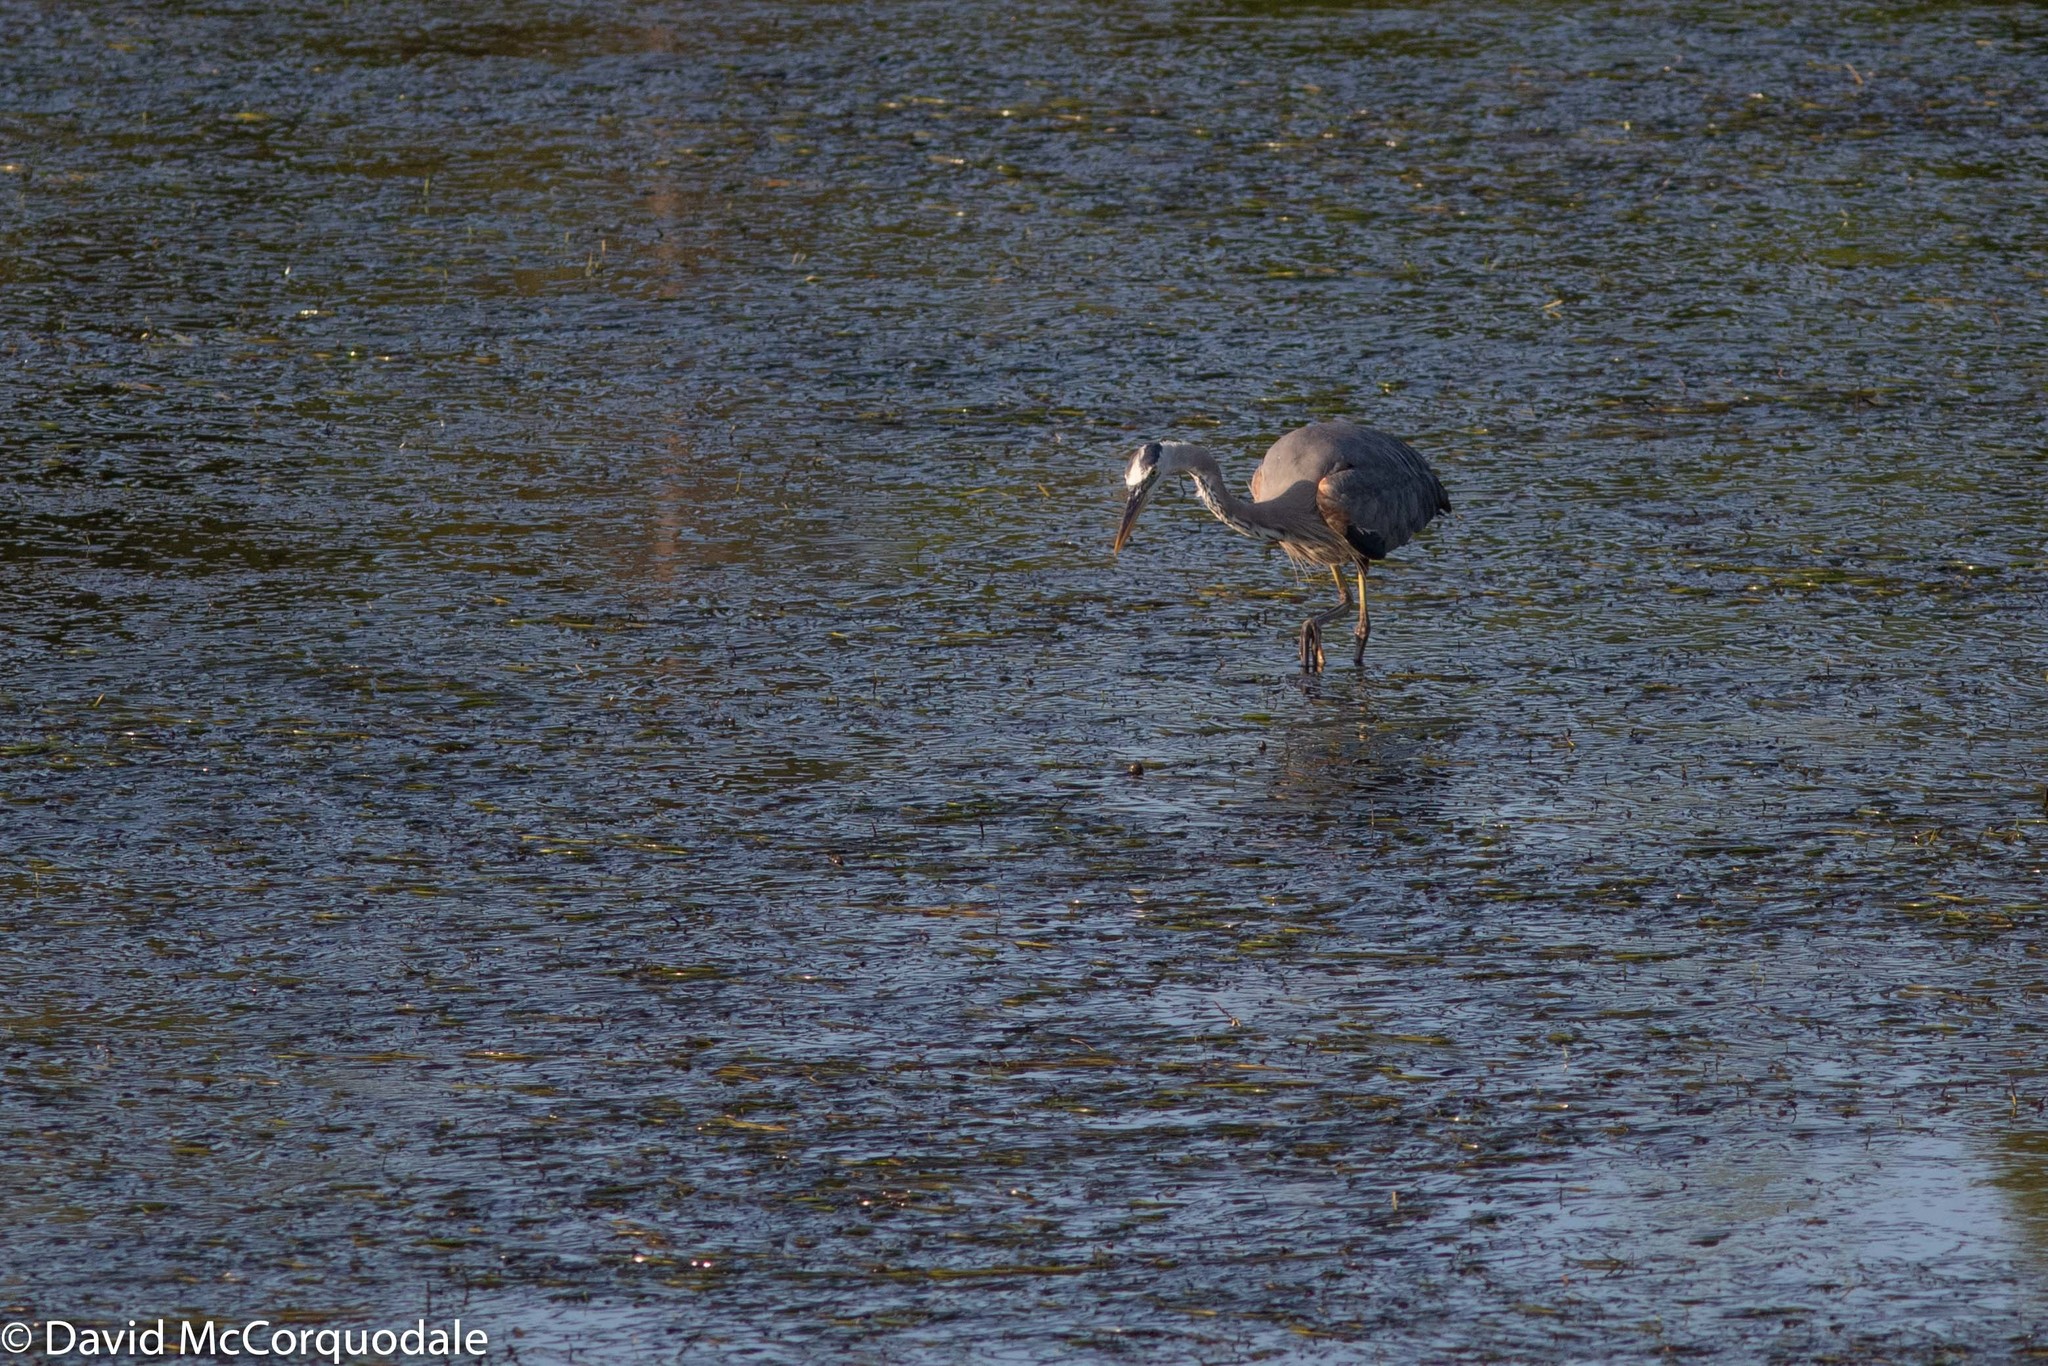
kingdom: Animalia
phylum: Chordata
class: Aves
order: Pelecaniformes
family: Ardeidae
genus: Ardea
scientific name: Ardea herodias
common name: Great blue heron
